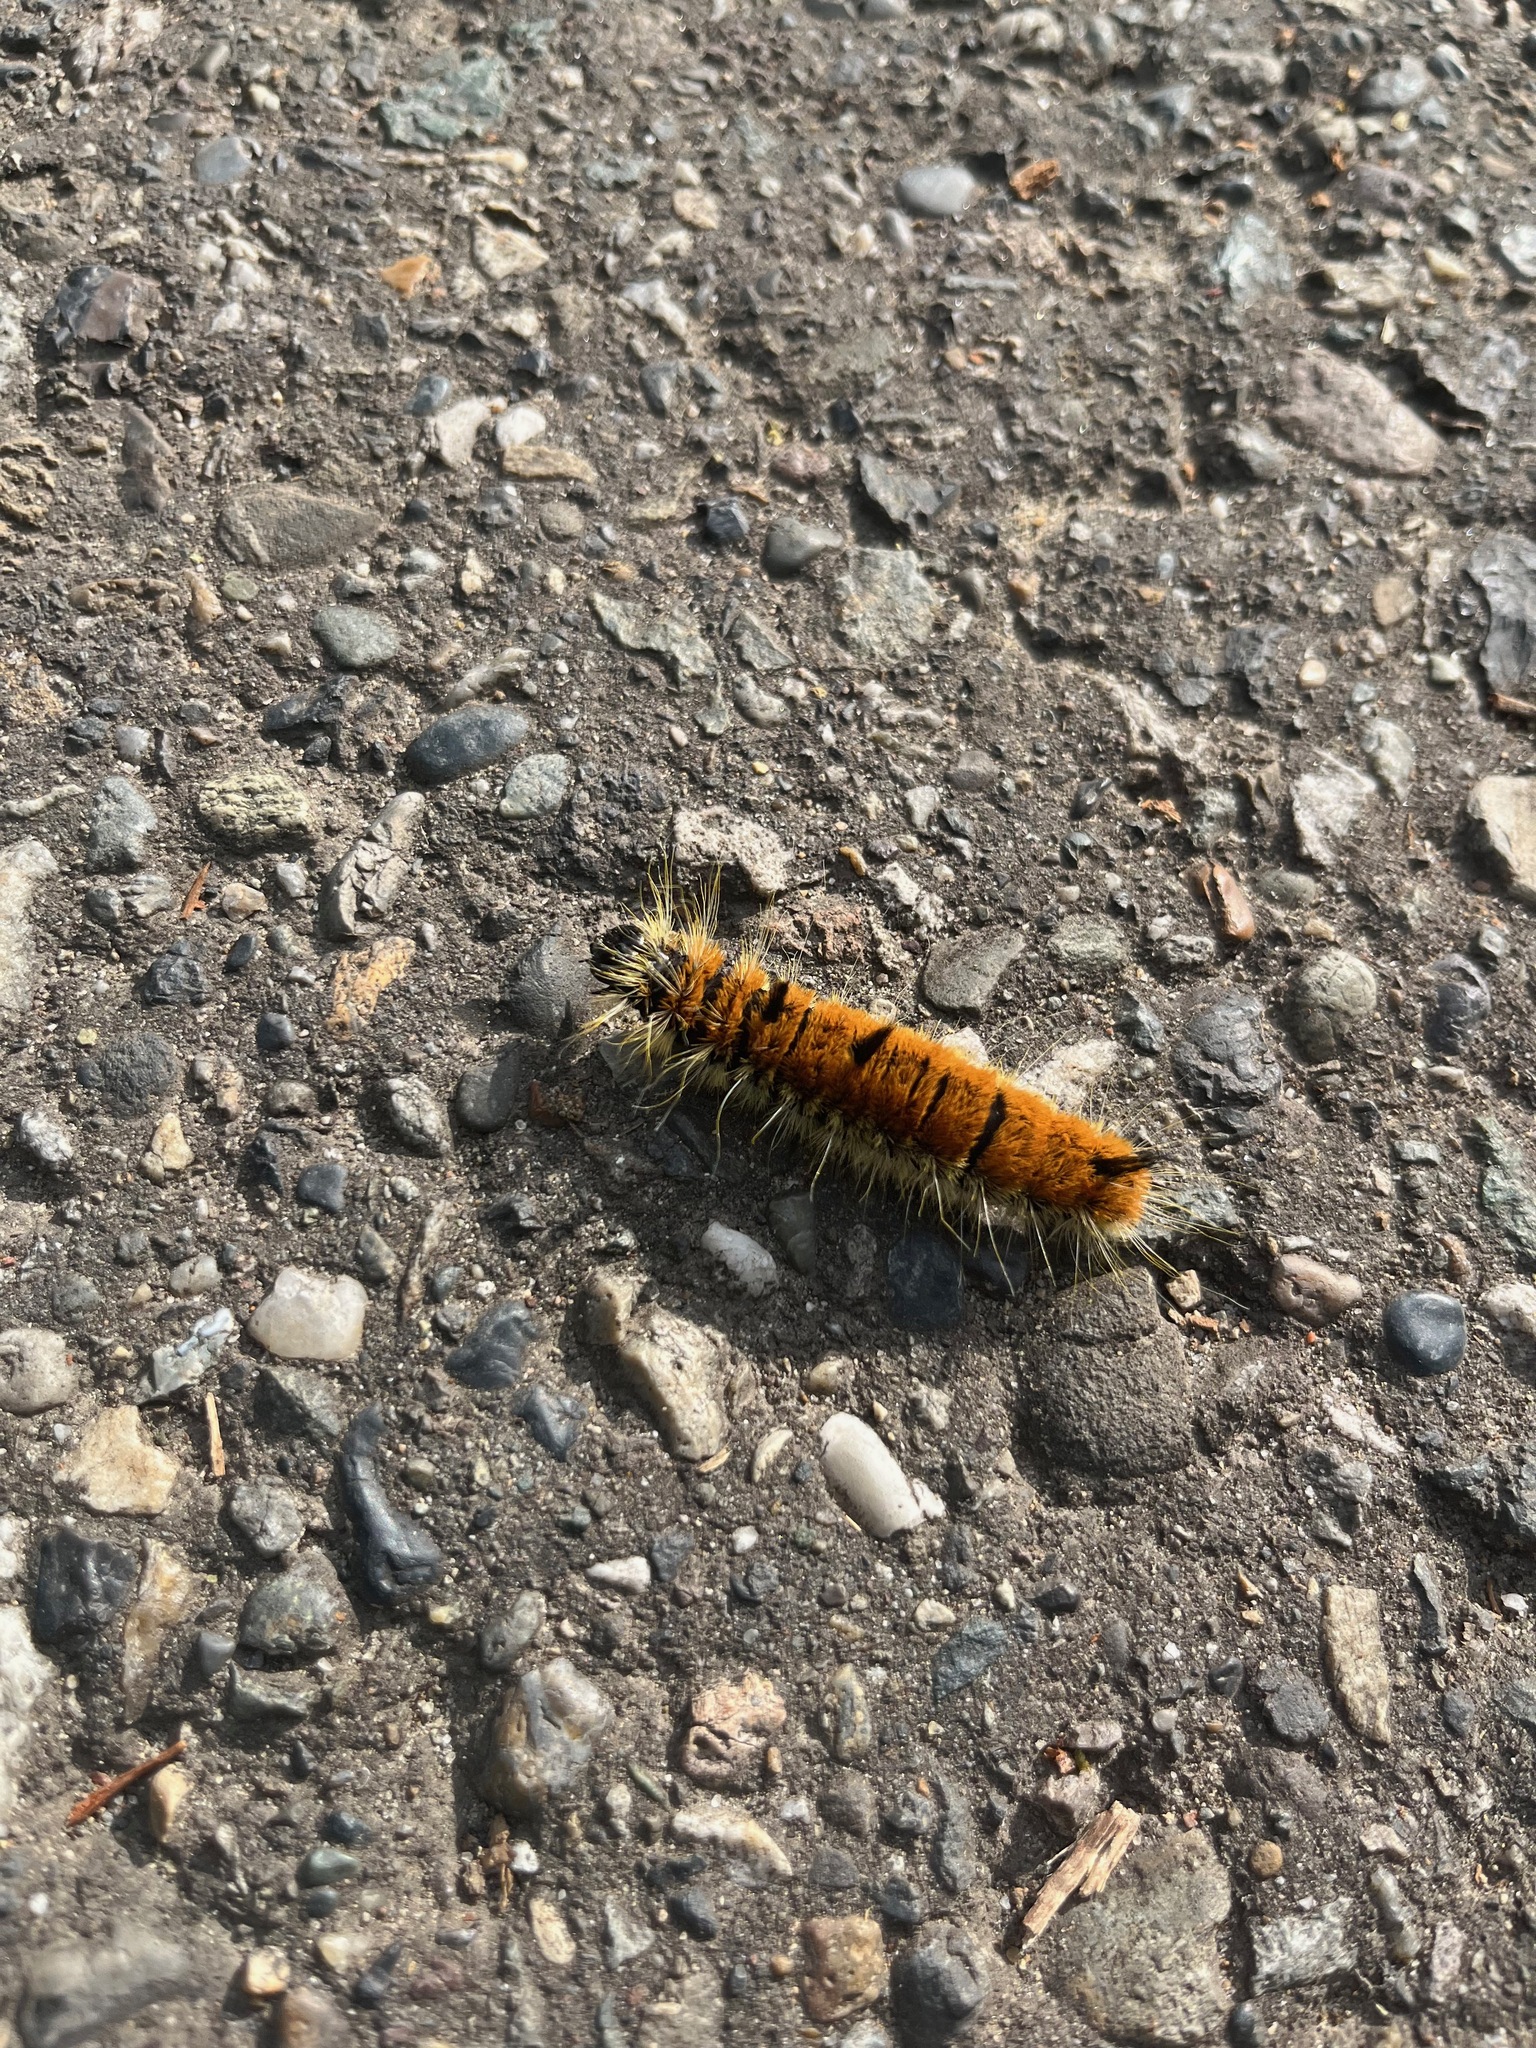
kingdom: Animalia
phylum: Arthropoda
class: Insecta
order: Lepidoptera
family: Noctuidae
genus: Acronicta
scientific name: Acronicta insita
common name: Large gray dagger
